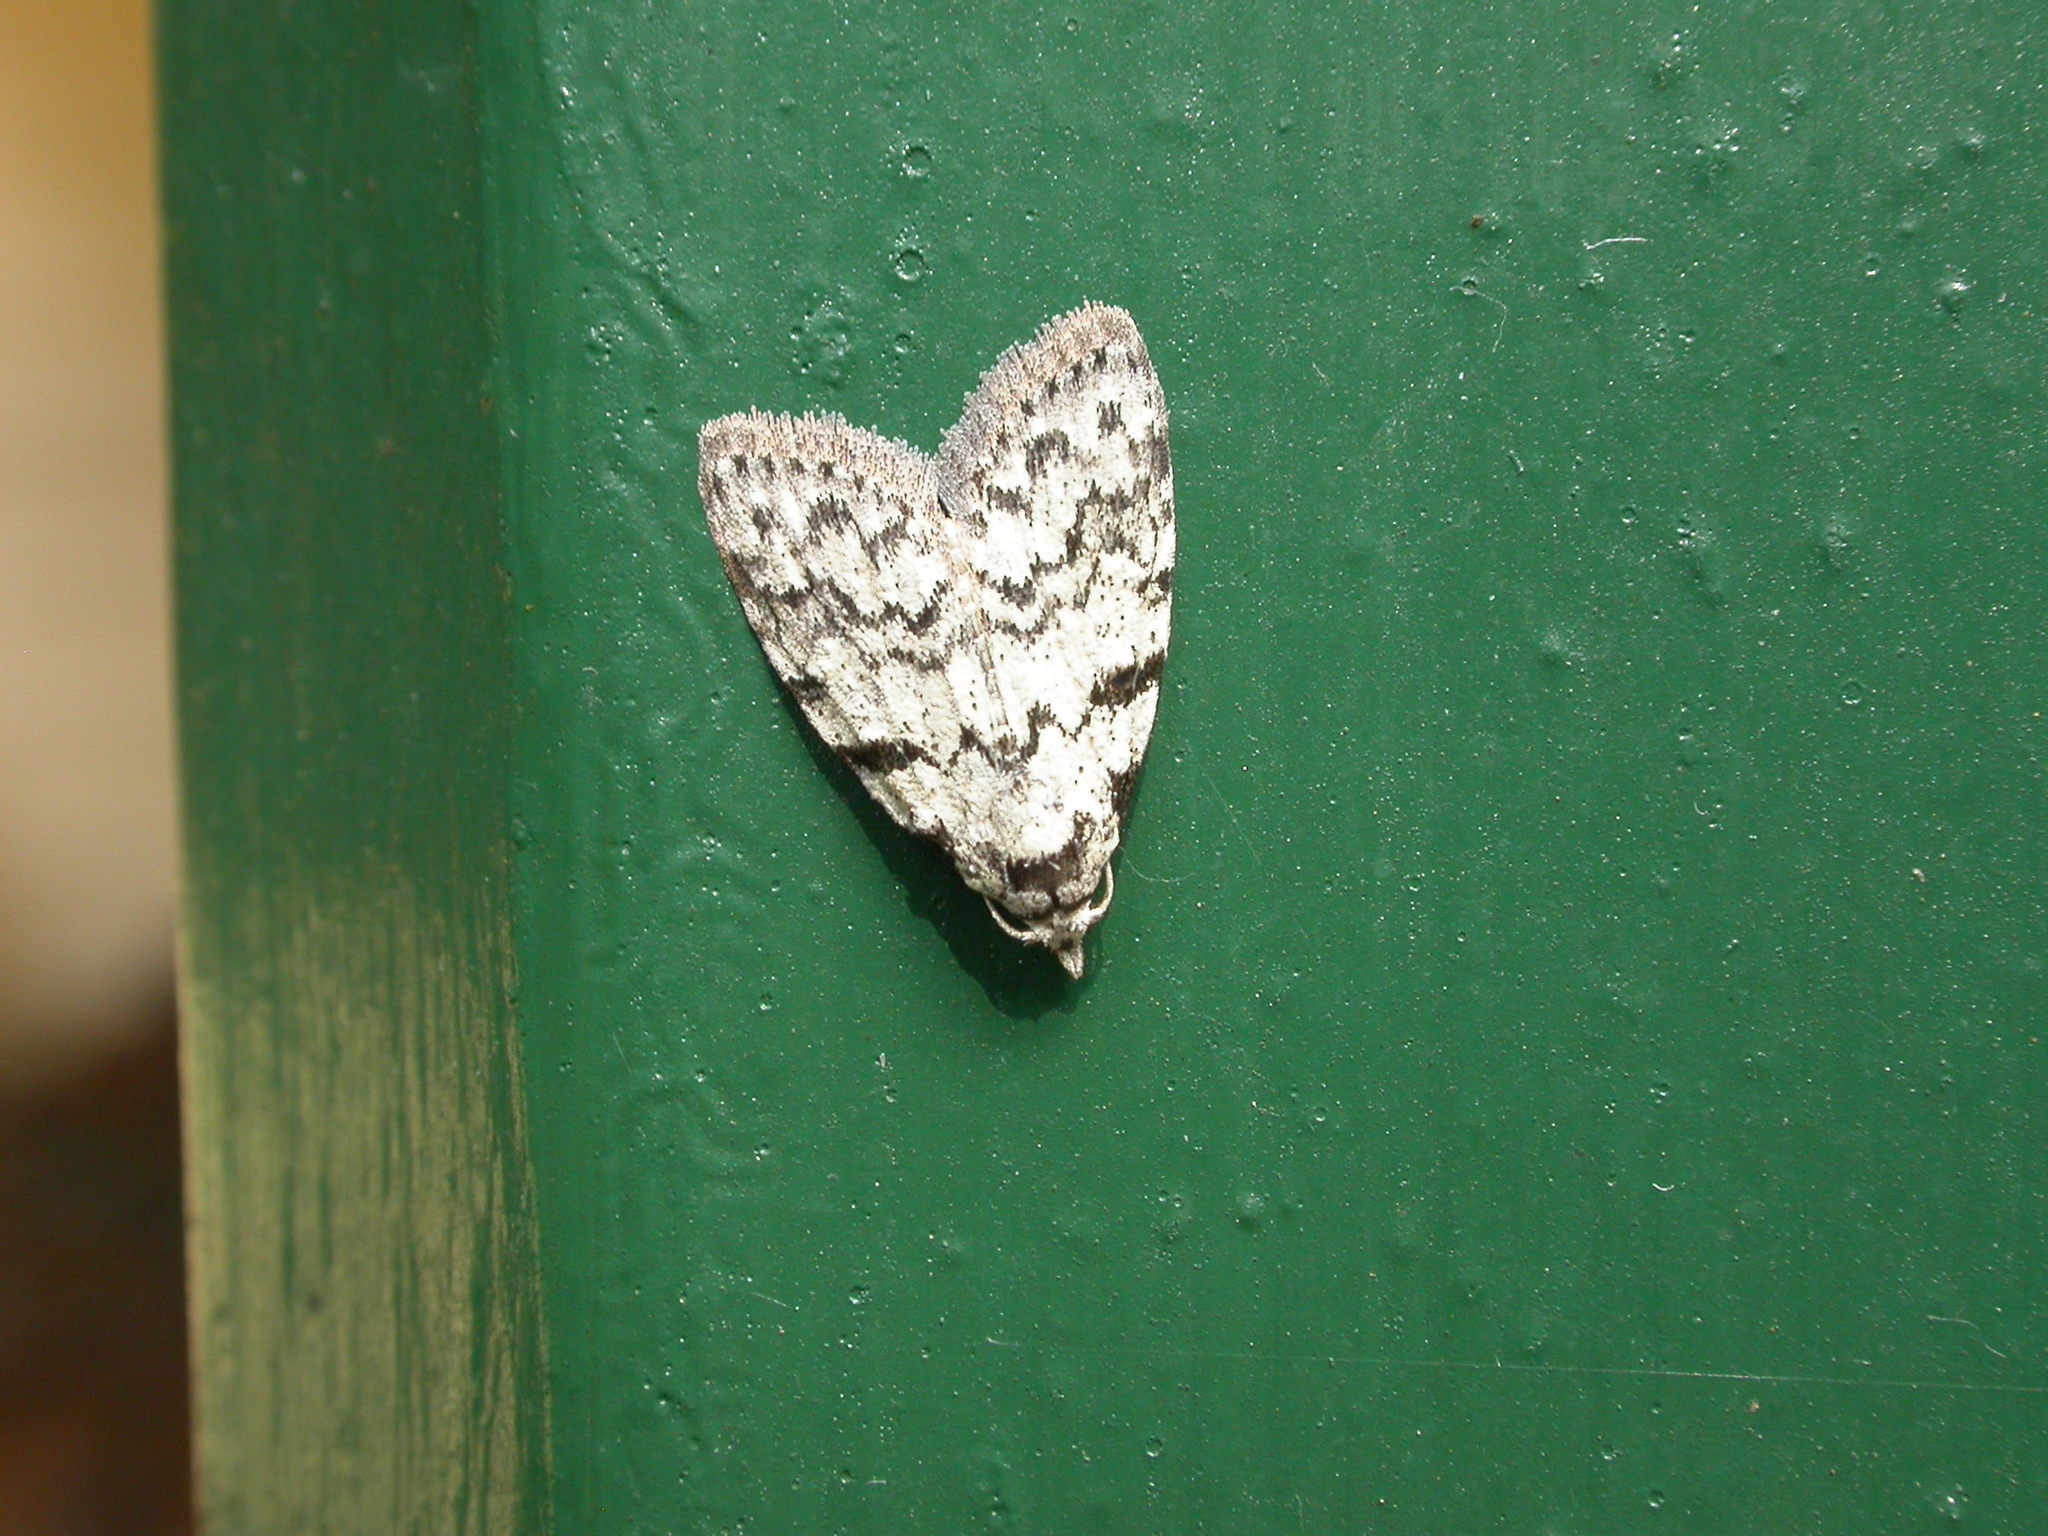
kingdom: Animalia
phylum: Arthropoda
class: Insecta
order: Lepidoptera
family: Nolidae
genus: Nola
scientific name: Nola melanogramma
